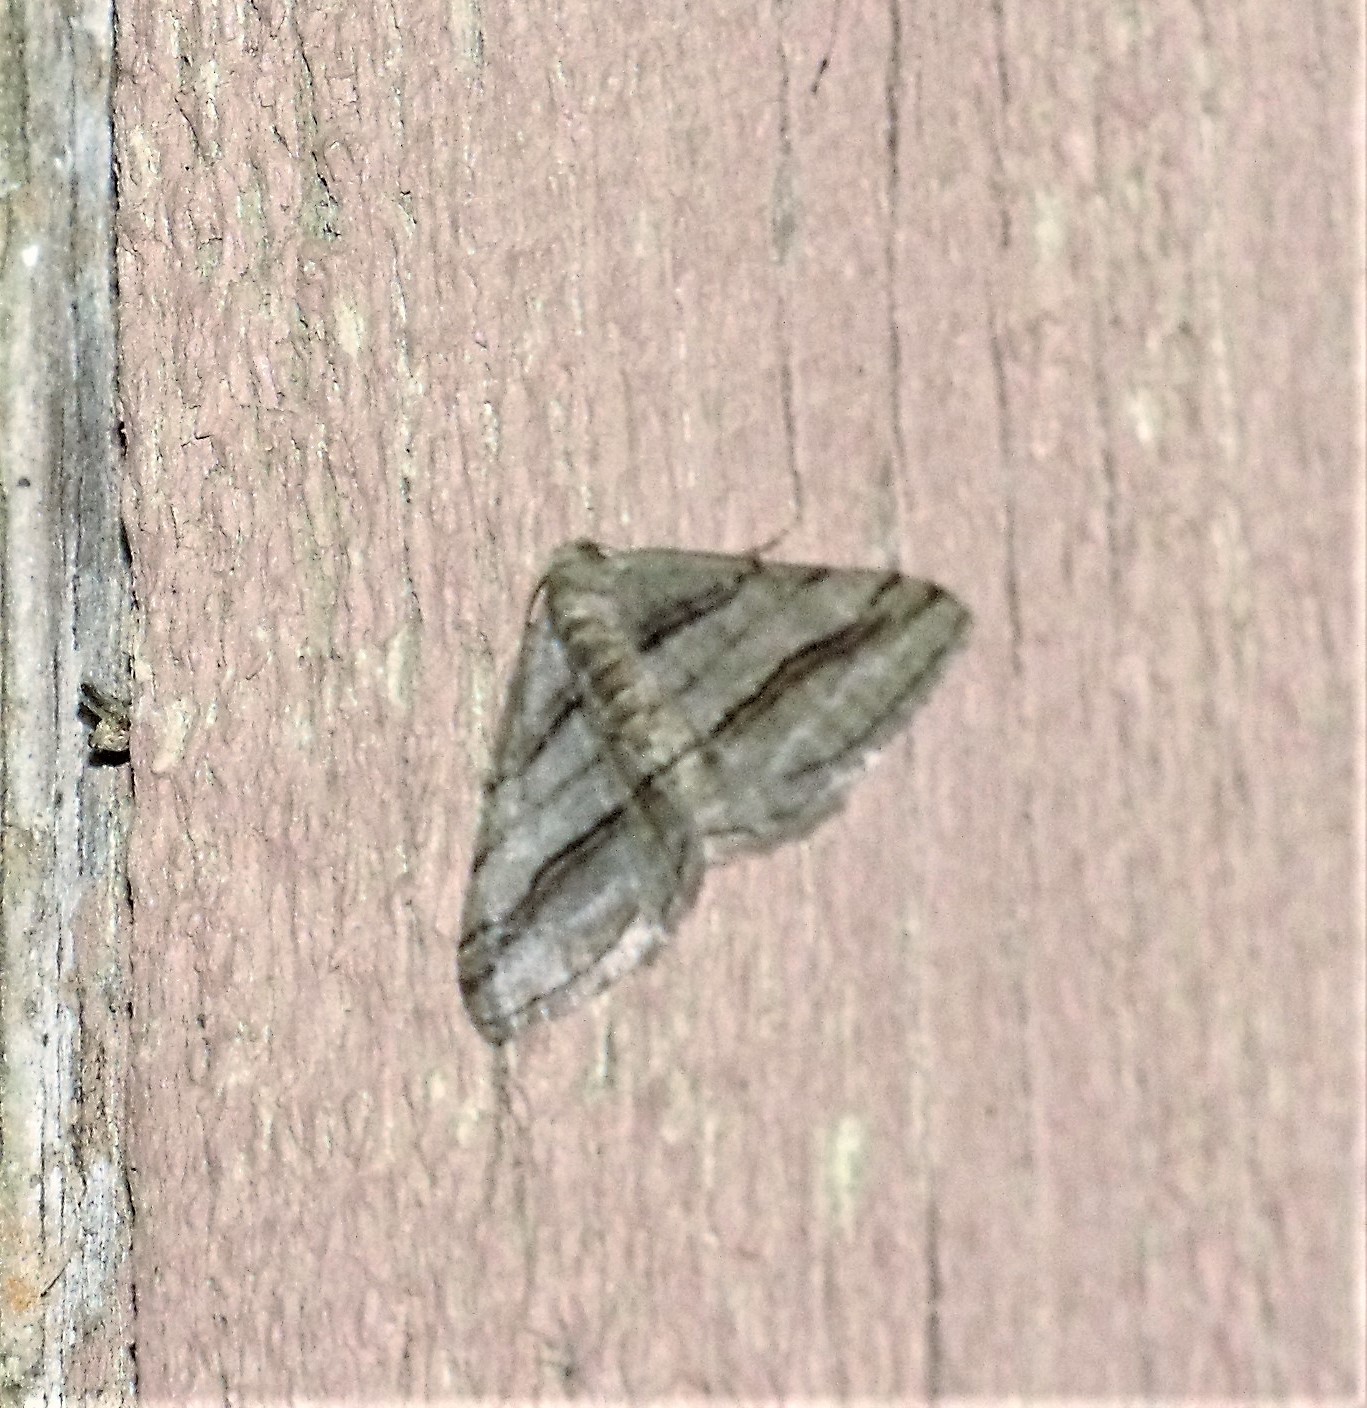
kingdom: Animalia
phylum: Arthropoda
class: Insecta
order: Lepidoptera
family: Geometridae
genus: Digrammia
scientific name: Digrammia continuata
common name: Curve-lined angle
